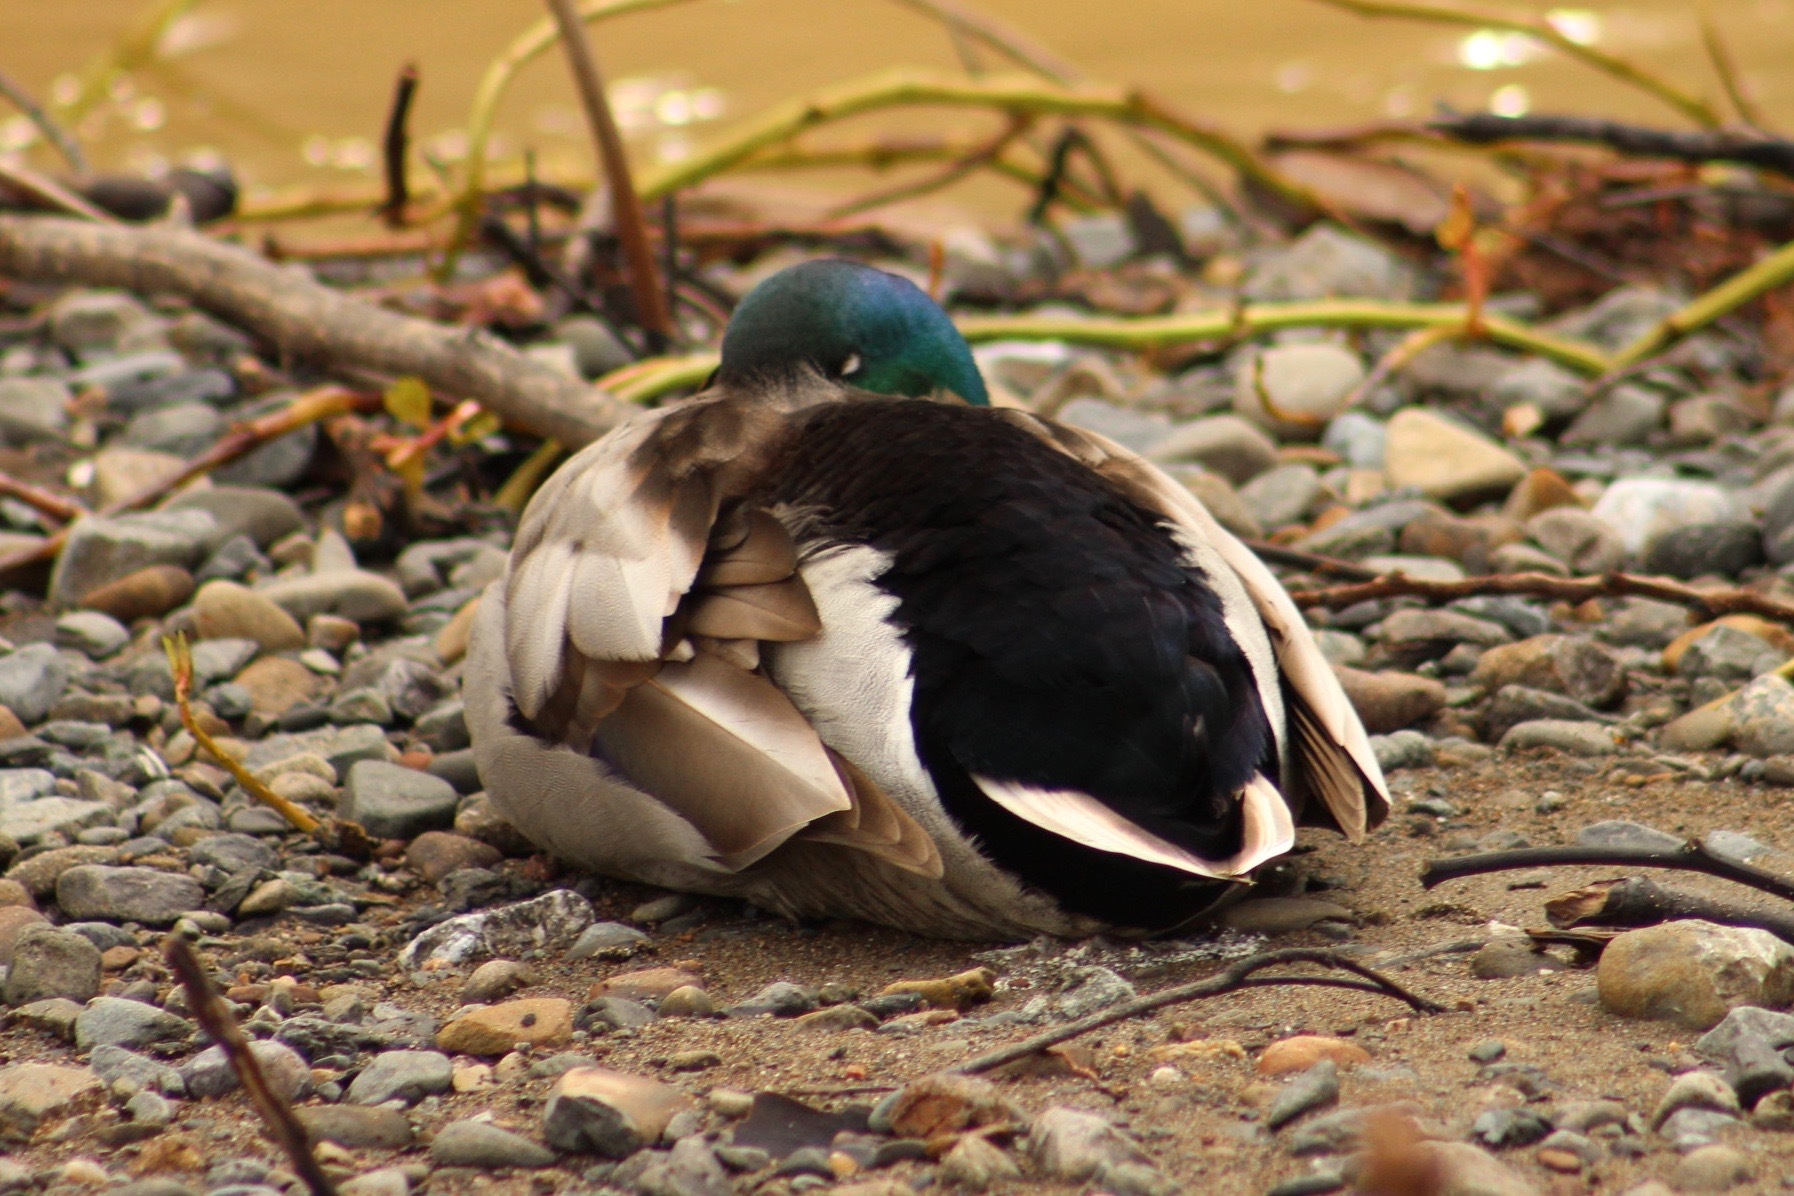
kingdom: Animalia
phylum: Chordata
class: Aves
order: Anseriformes
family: Anatidae
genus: Anas
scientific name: Anas platyrhynchos
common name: Mallard
